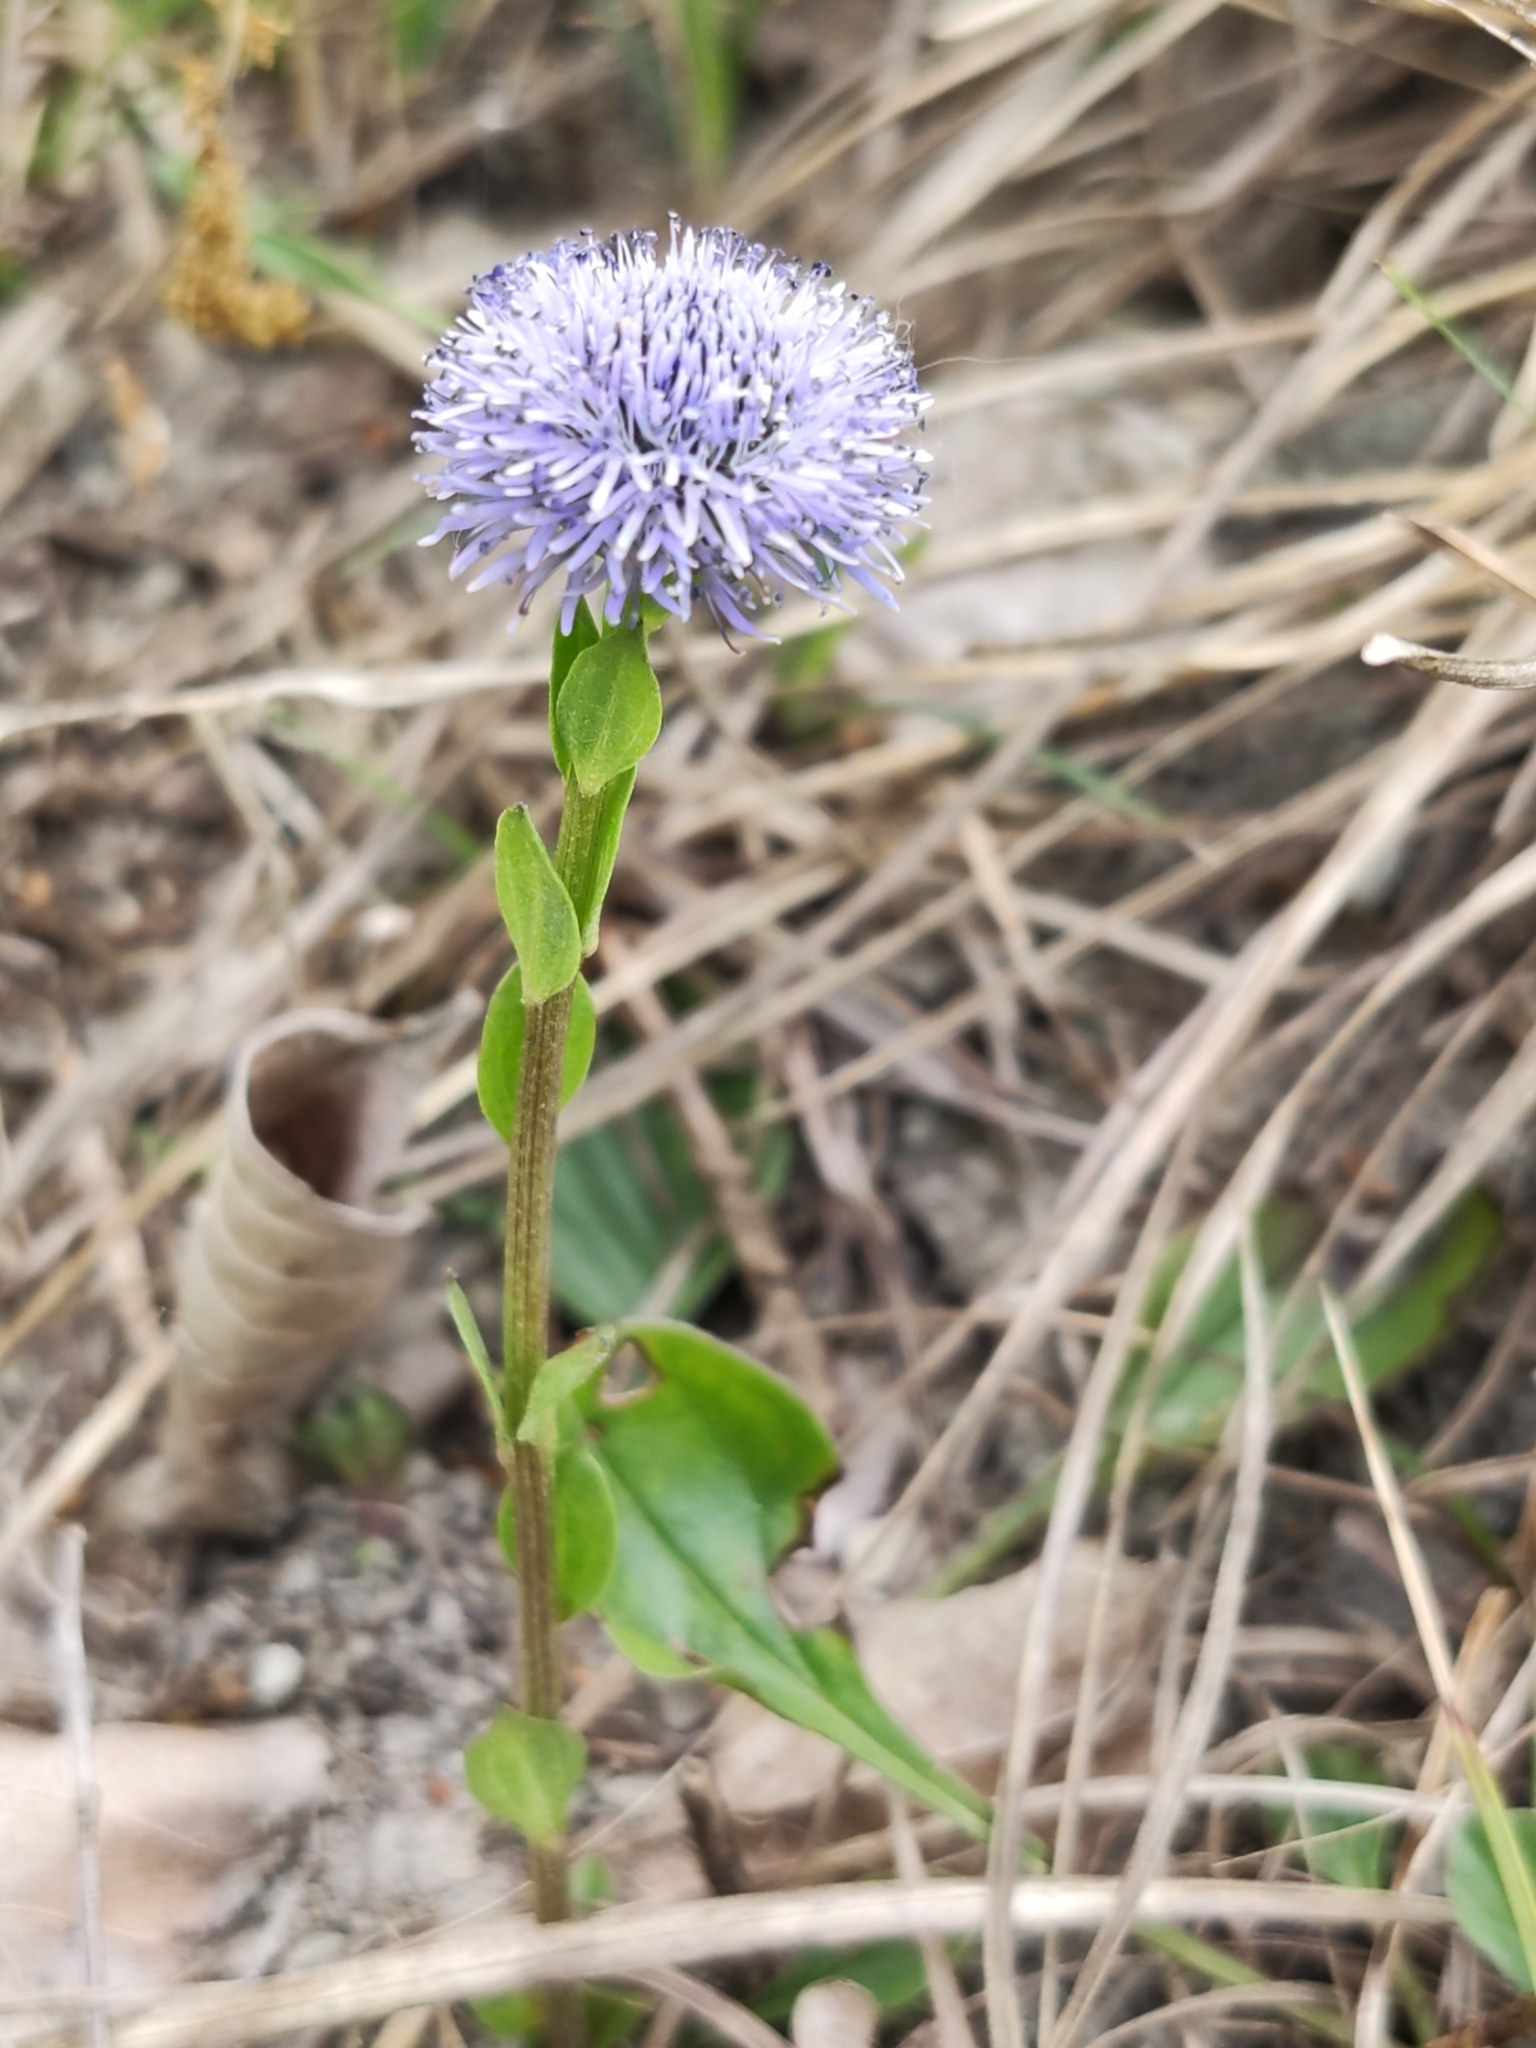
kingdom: Plantae
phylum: Tracheophyta
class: Magnoliopsida
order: Lamiales
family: Plantaginaceae
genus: Globularia
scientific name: Globularia bisnagarica
